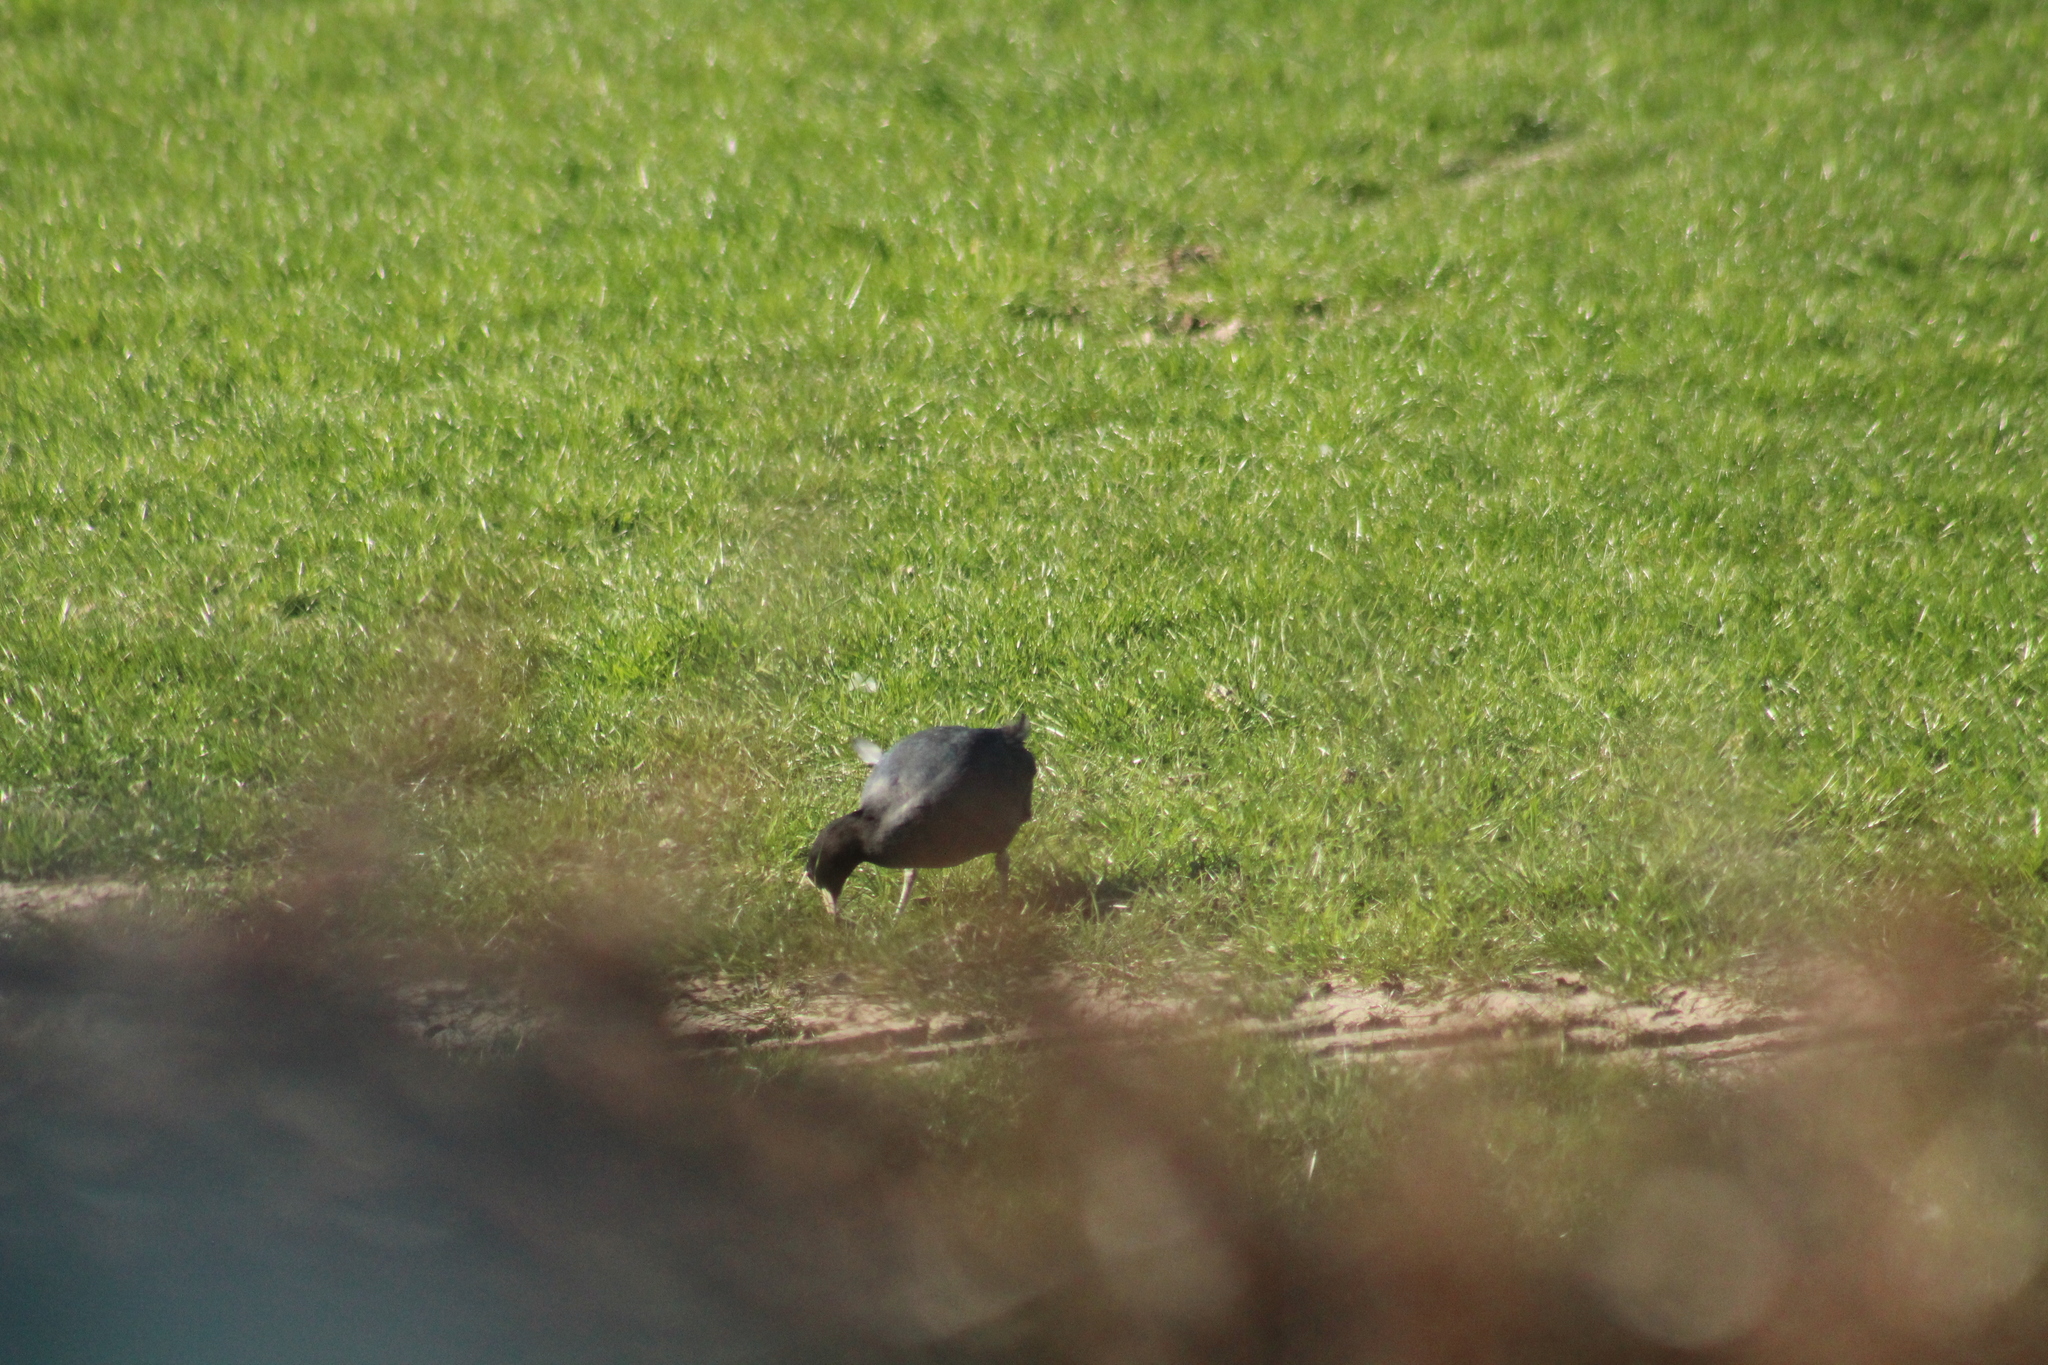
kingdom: Animalia
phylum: Chordata
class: Aves
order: Gruiformes
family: Rallidae
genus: Fulica
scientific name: Fulica atra
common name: Eurasian coot
